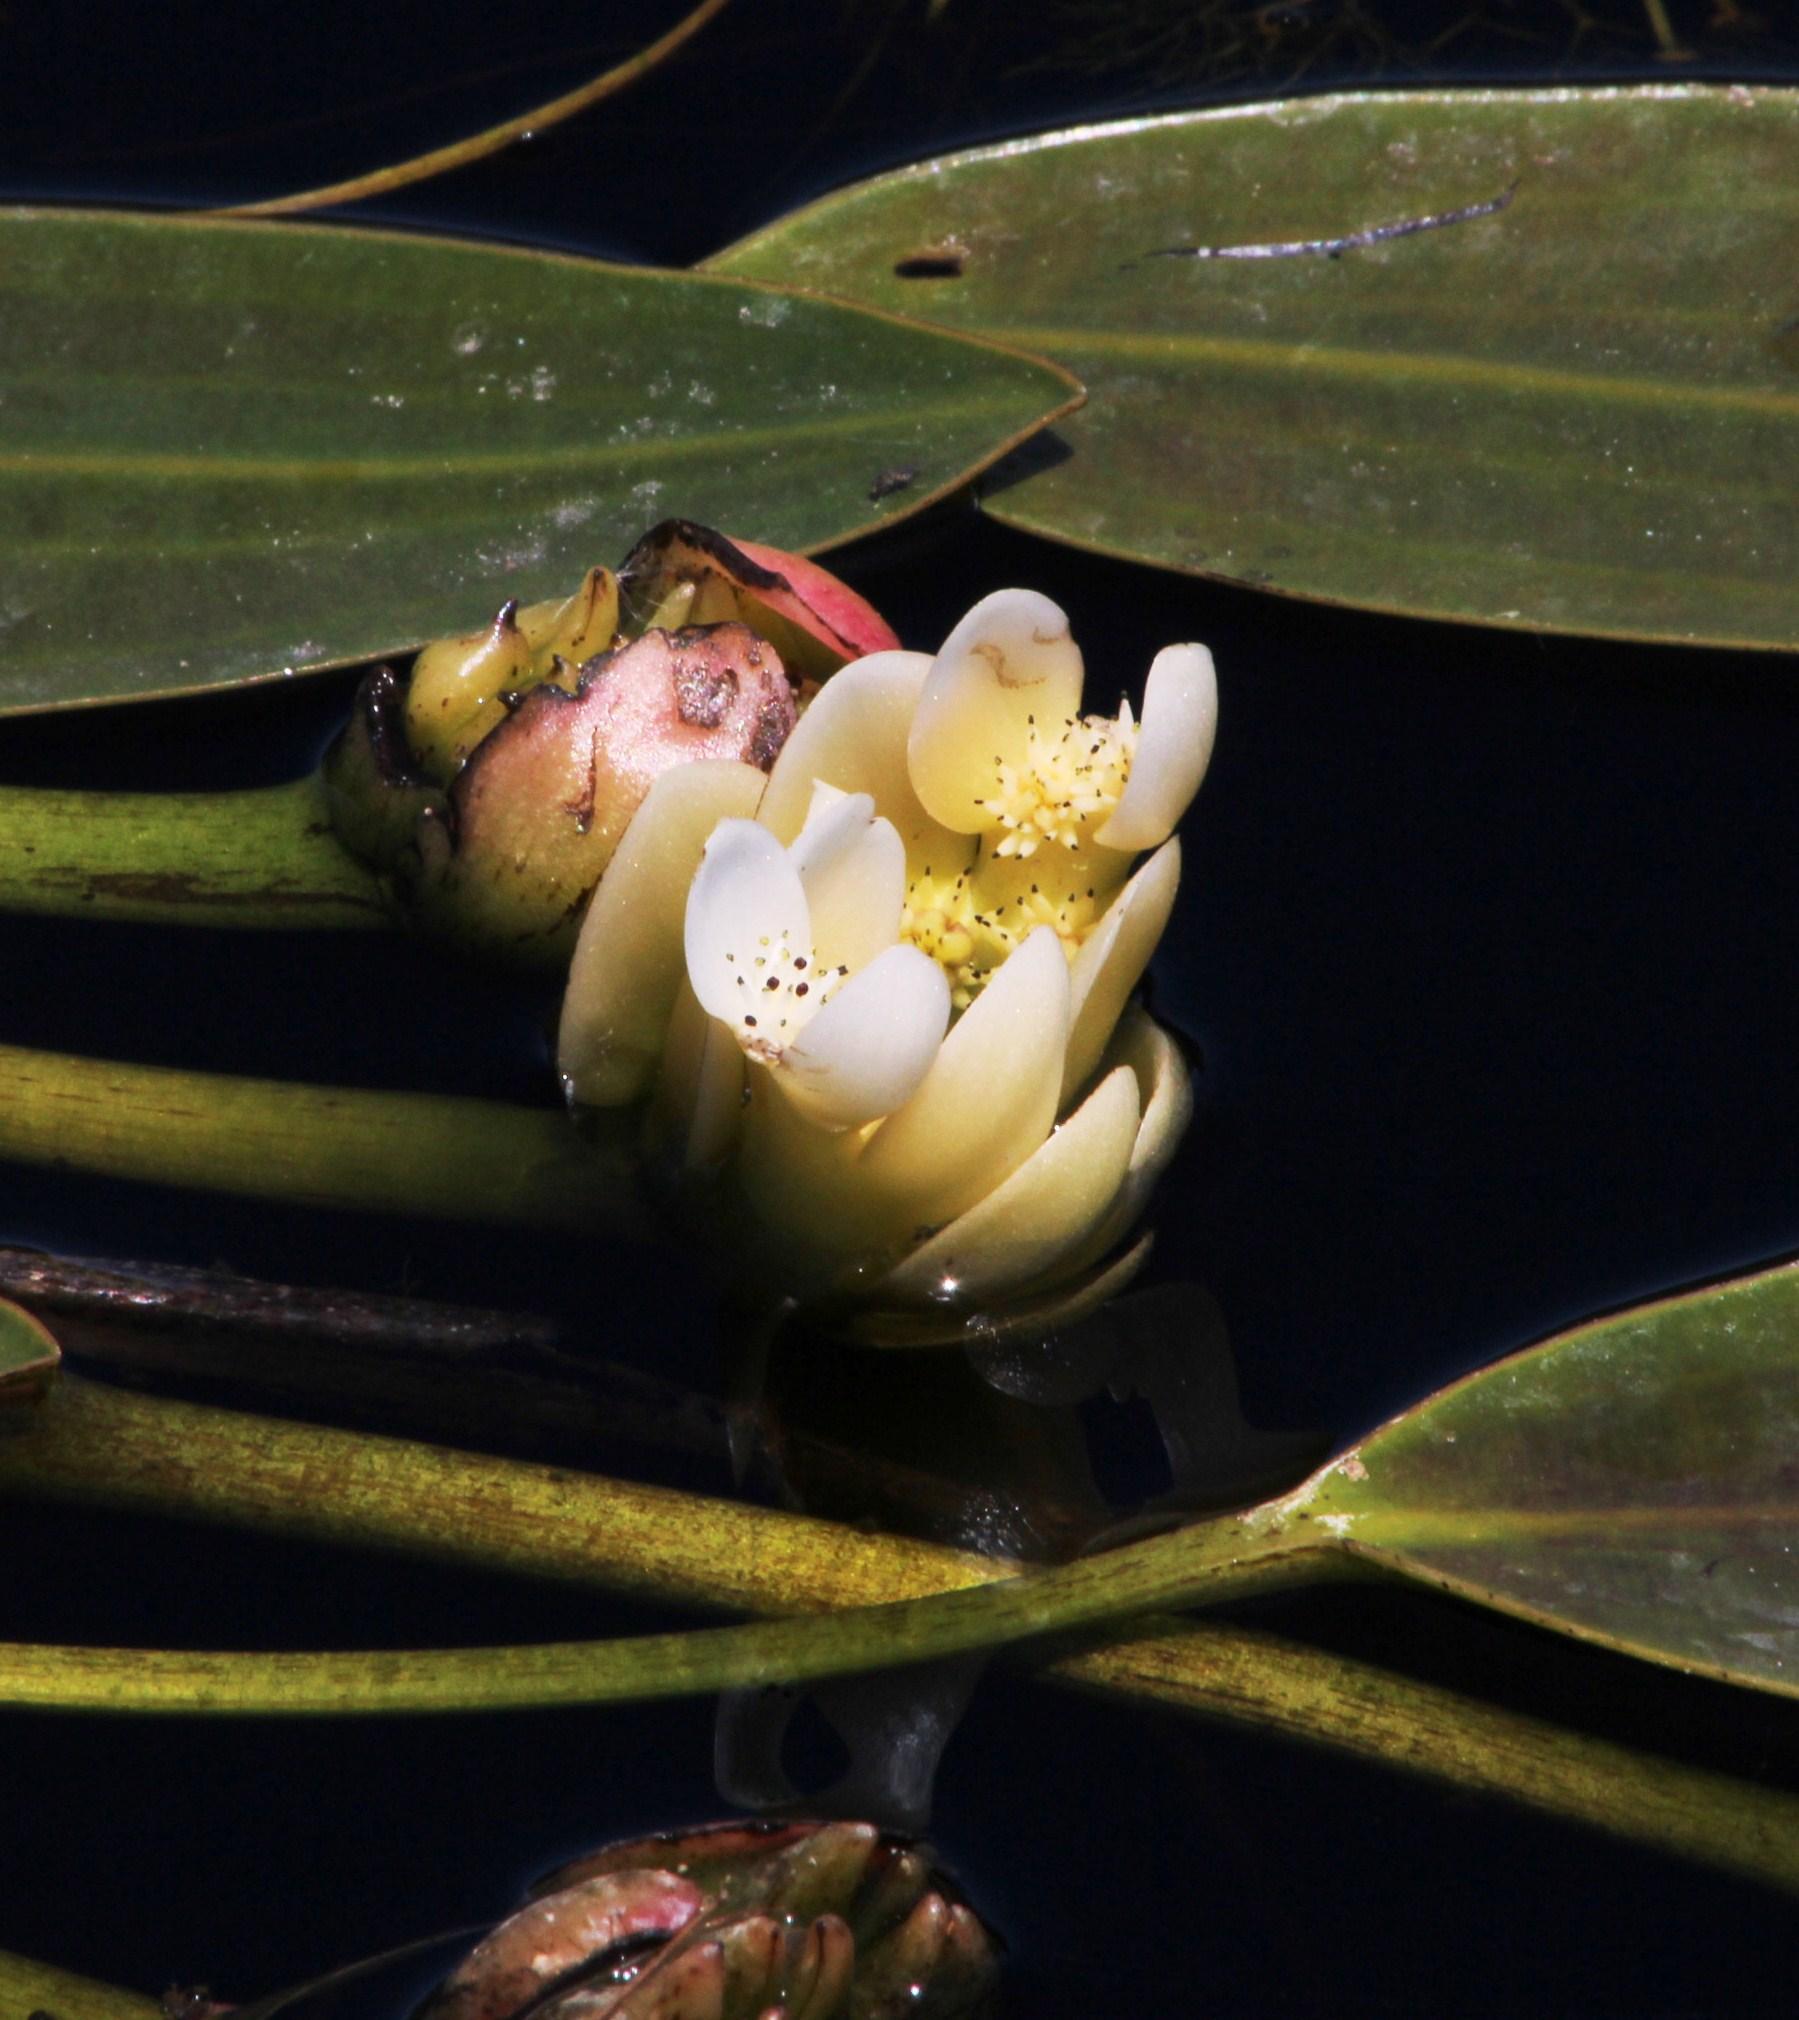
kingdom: Plantae
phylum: Tracheophyta
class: Liliopsida
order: Alismatales
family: Aponogetonaceae
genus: Aponogeton
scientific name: Aponogeton distachyos
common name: Cape-pondweed
